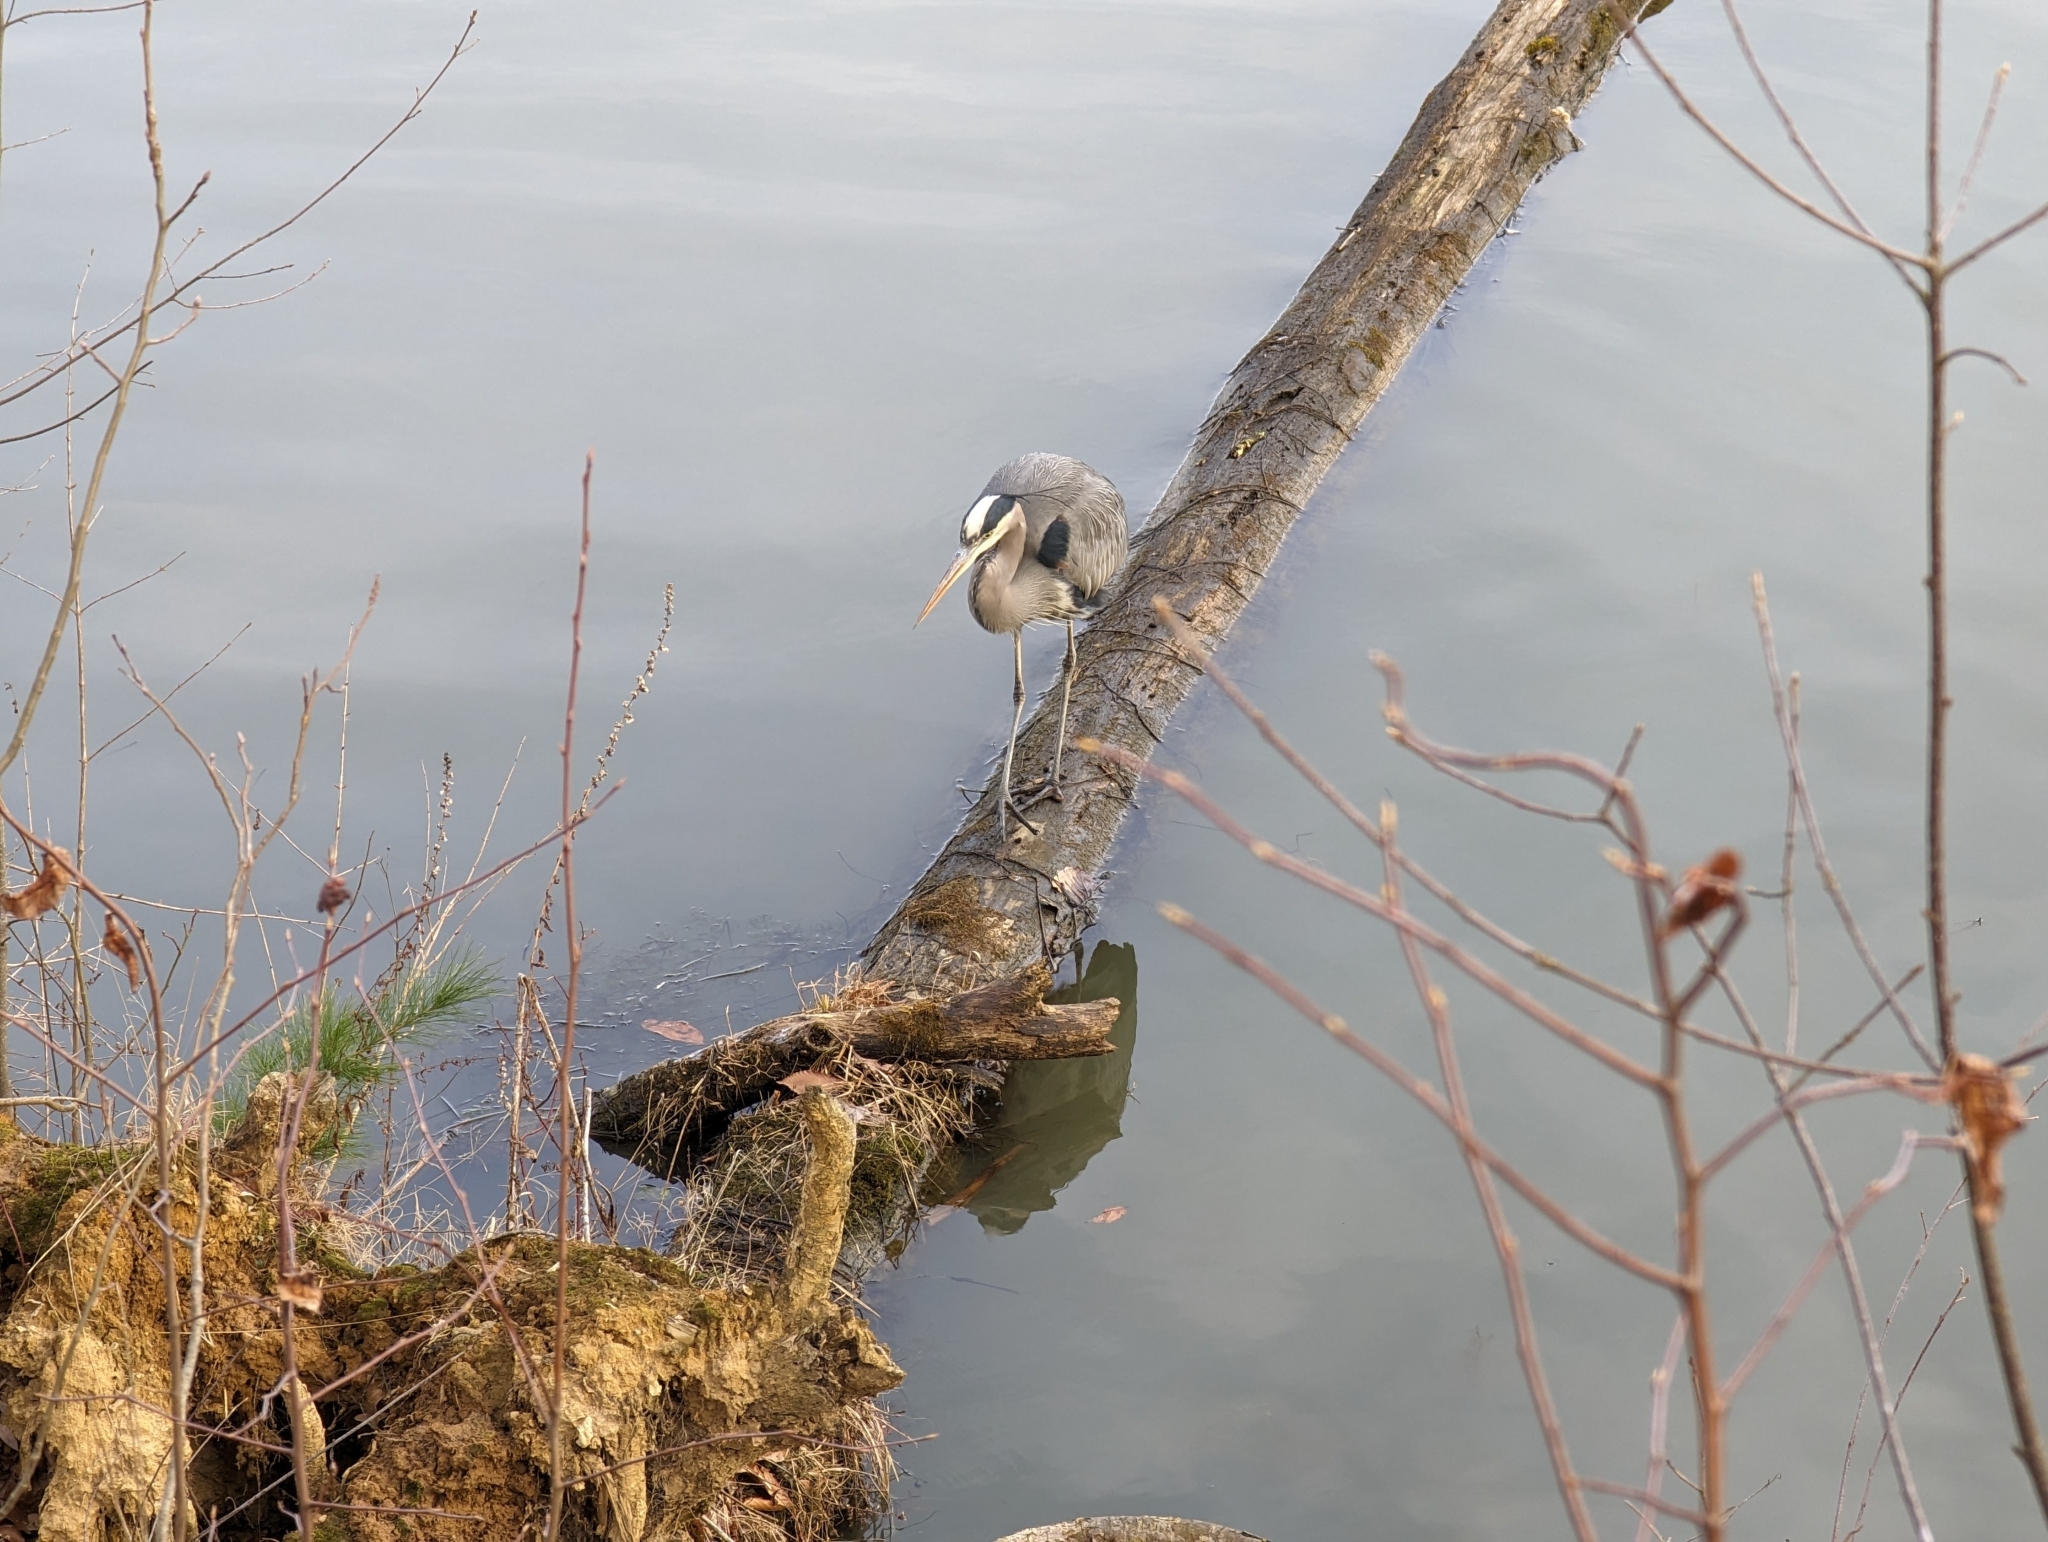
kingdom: Animalia
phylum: Chordata
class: Aves
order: Pelecaniformes
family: Ardeidae
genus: Ardea
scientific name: Ardea herodias
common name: Great blue heron
